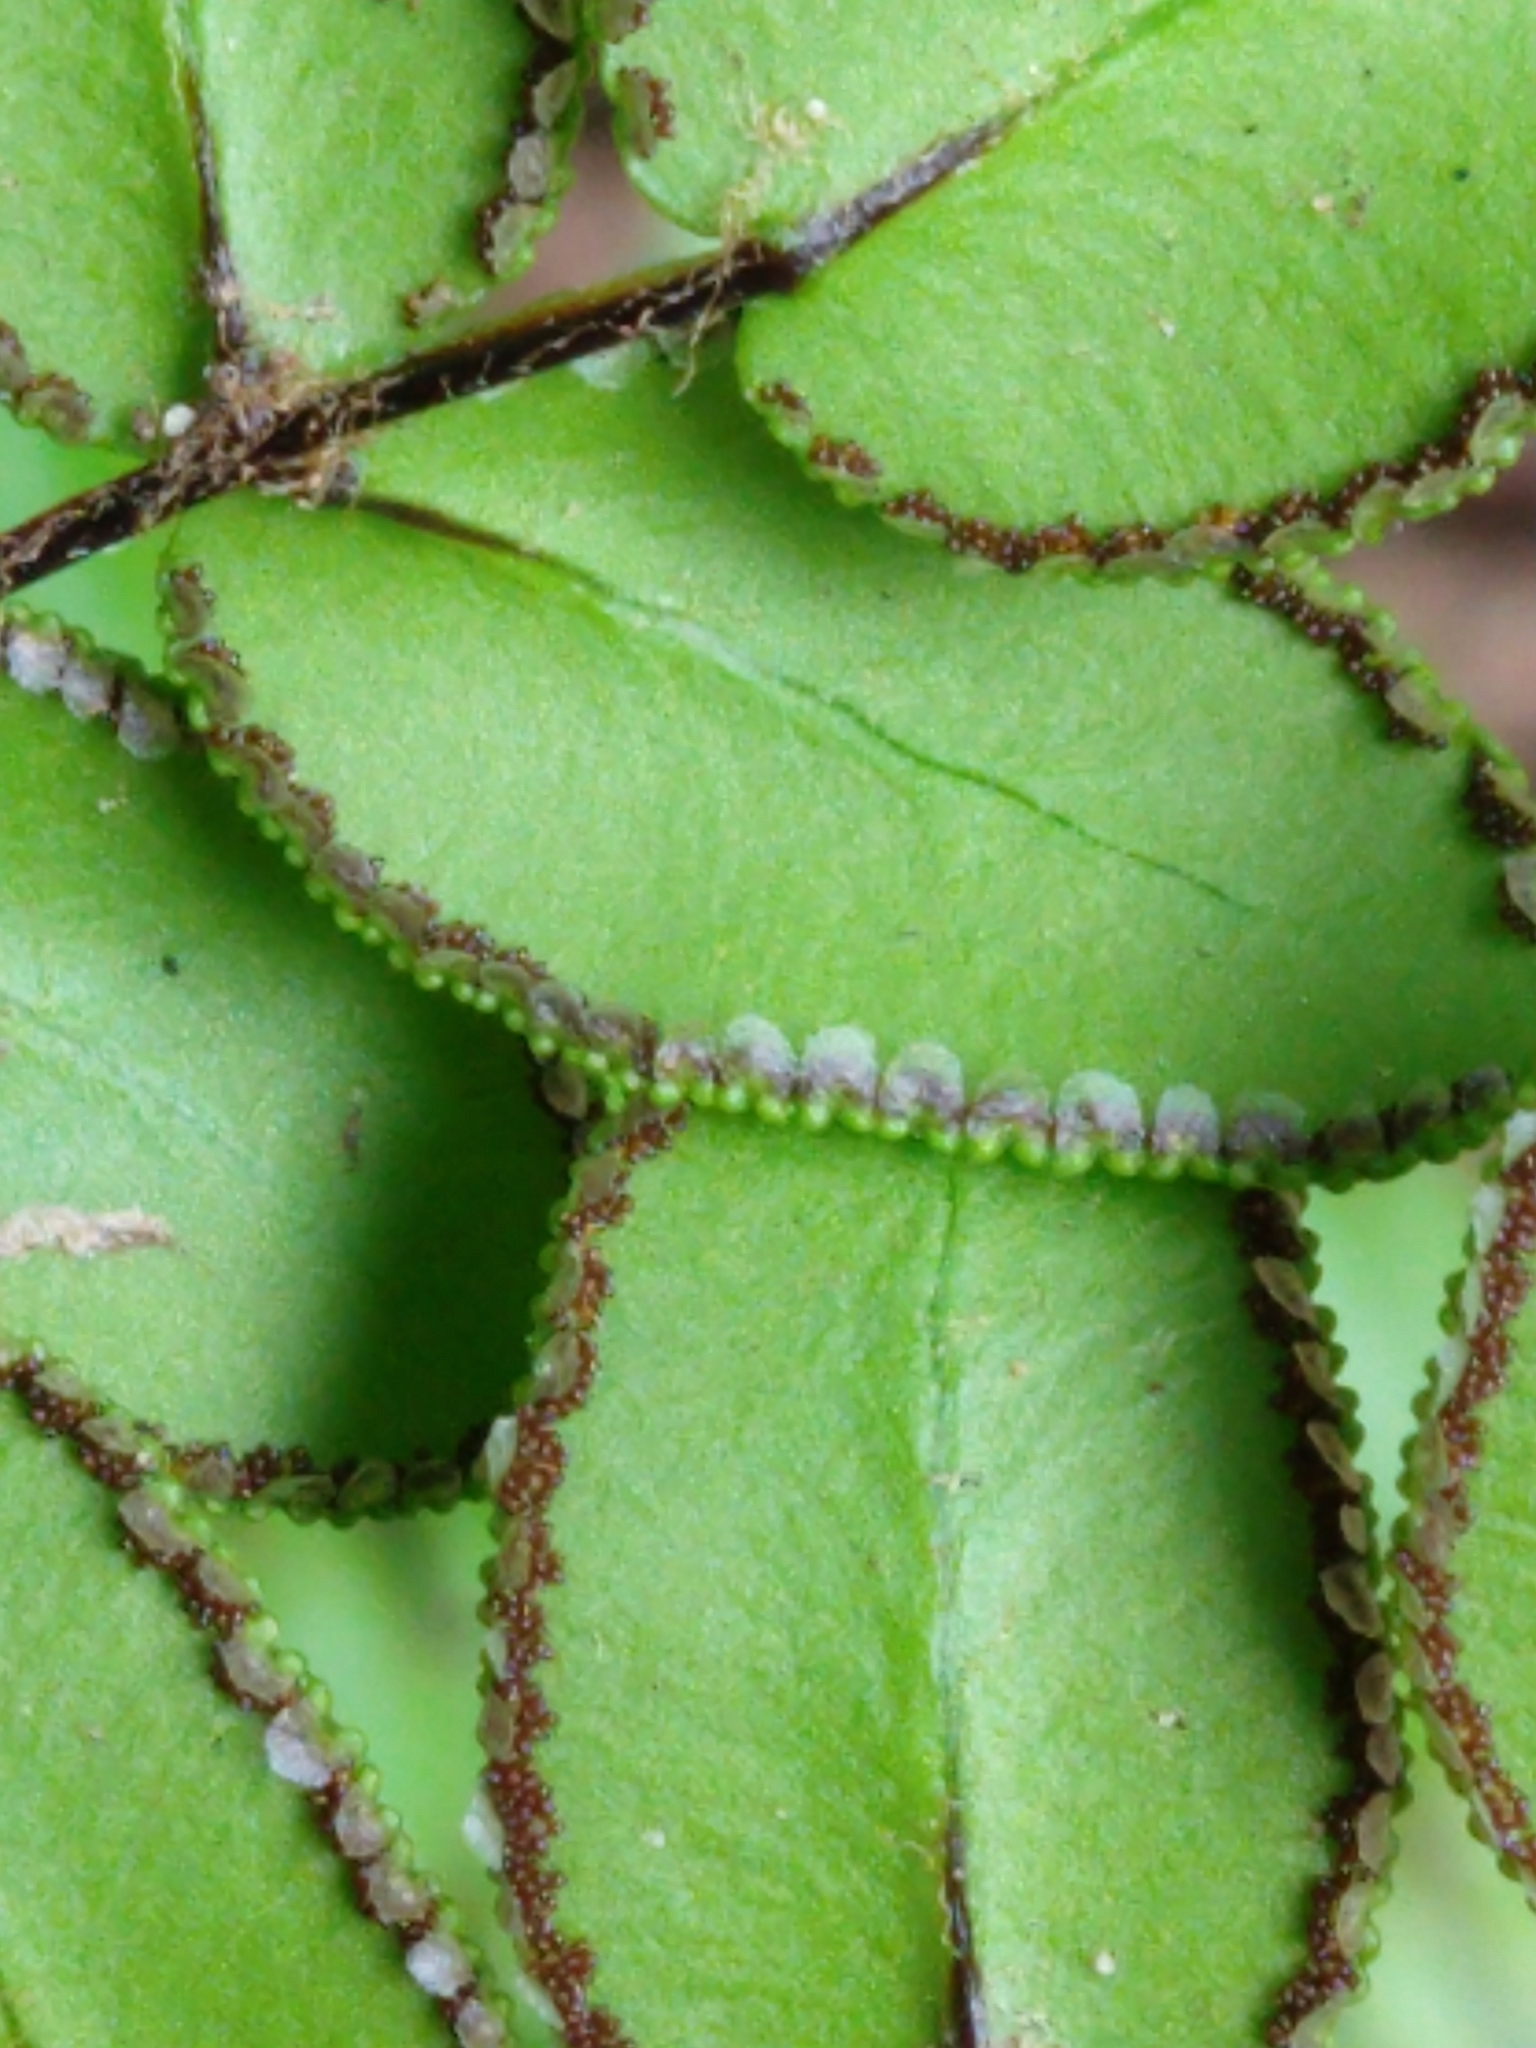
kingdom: Plantae
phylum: Tracheophyta
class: Polypodiopsida
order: Polypodiales
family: Pteridaceae
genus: Pellaea
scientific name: Pellaea pteroides
